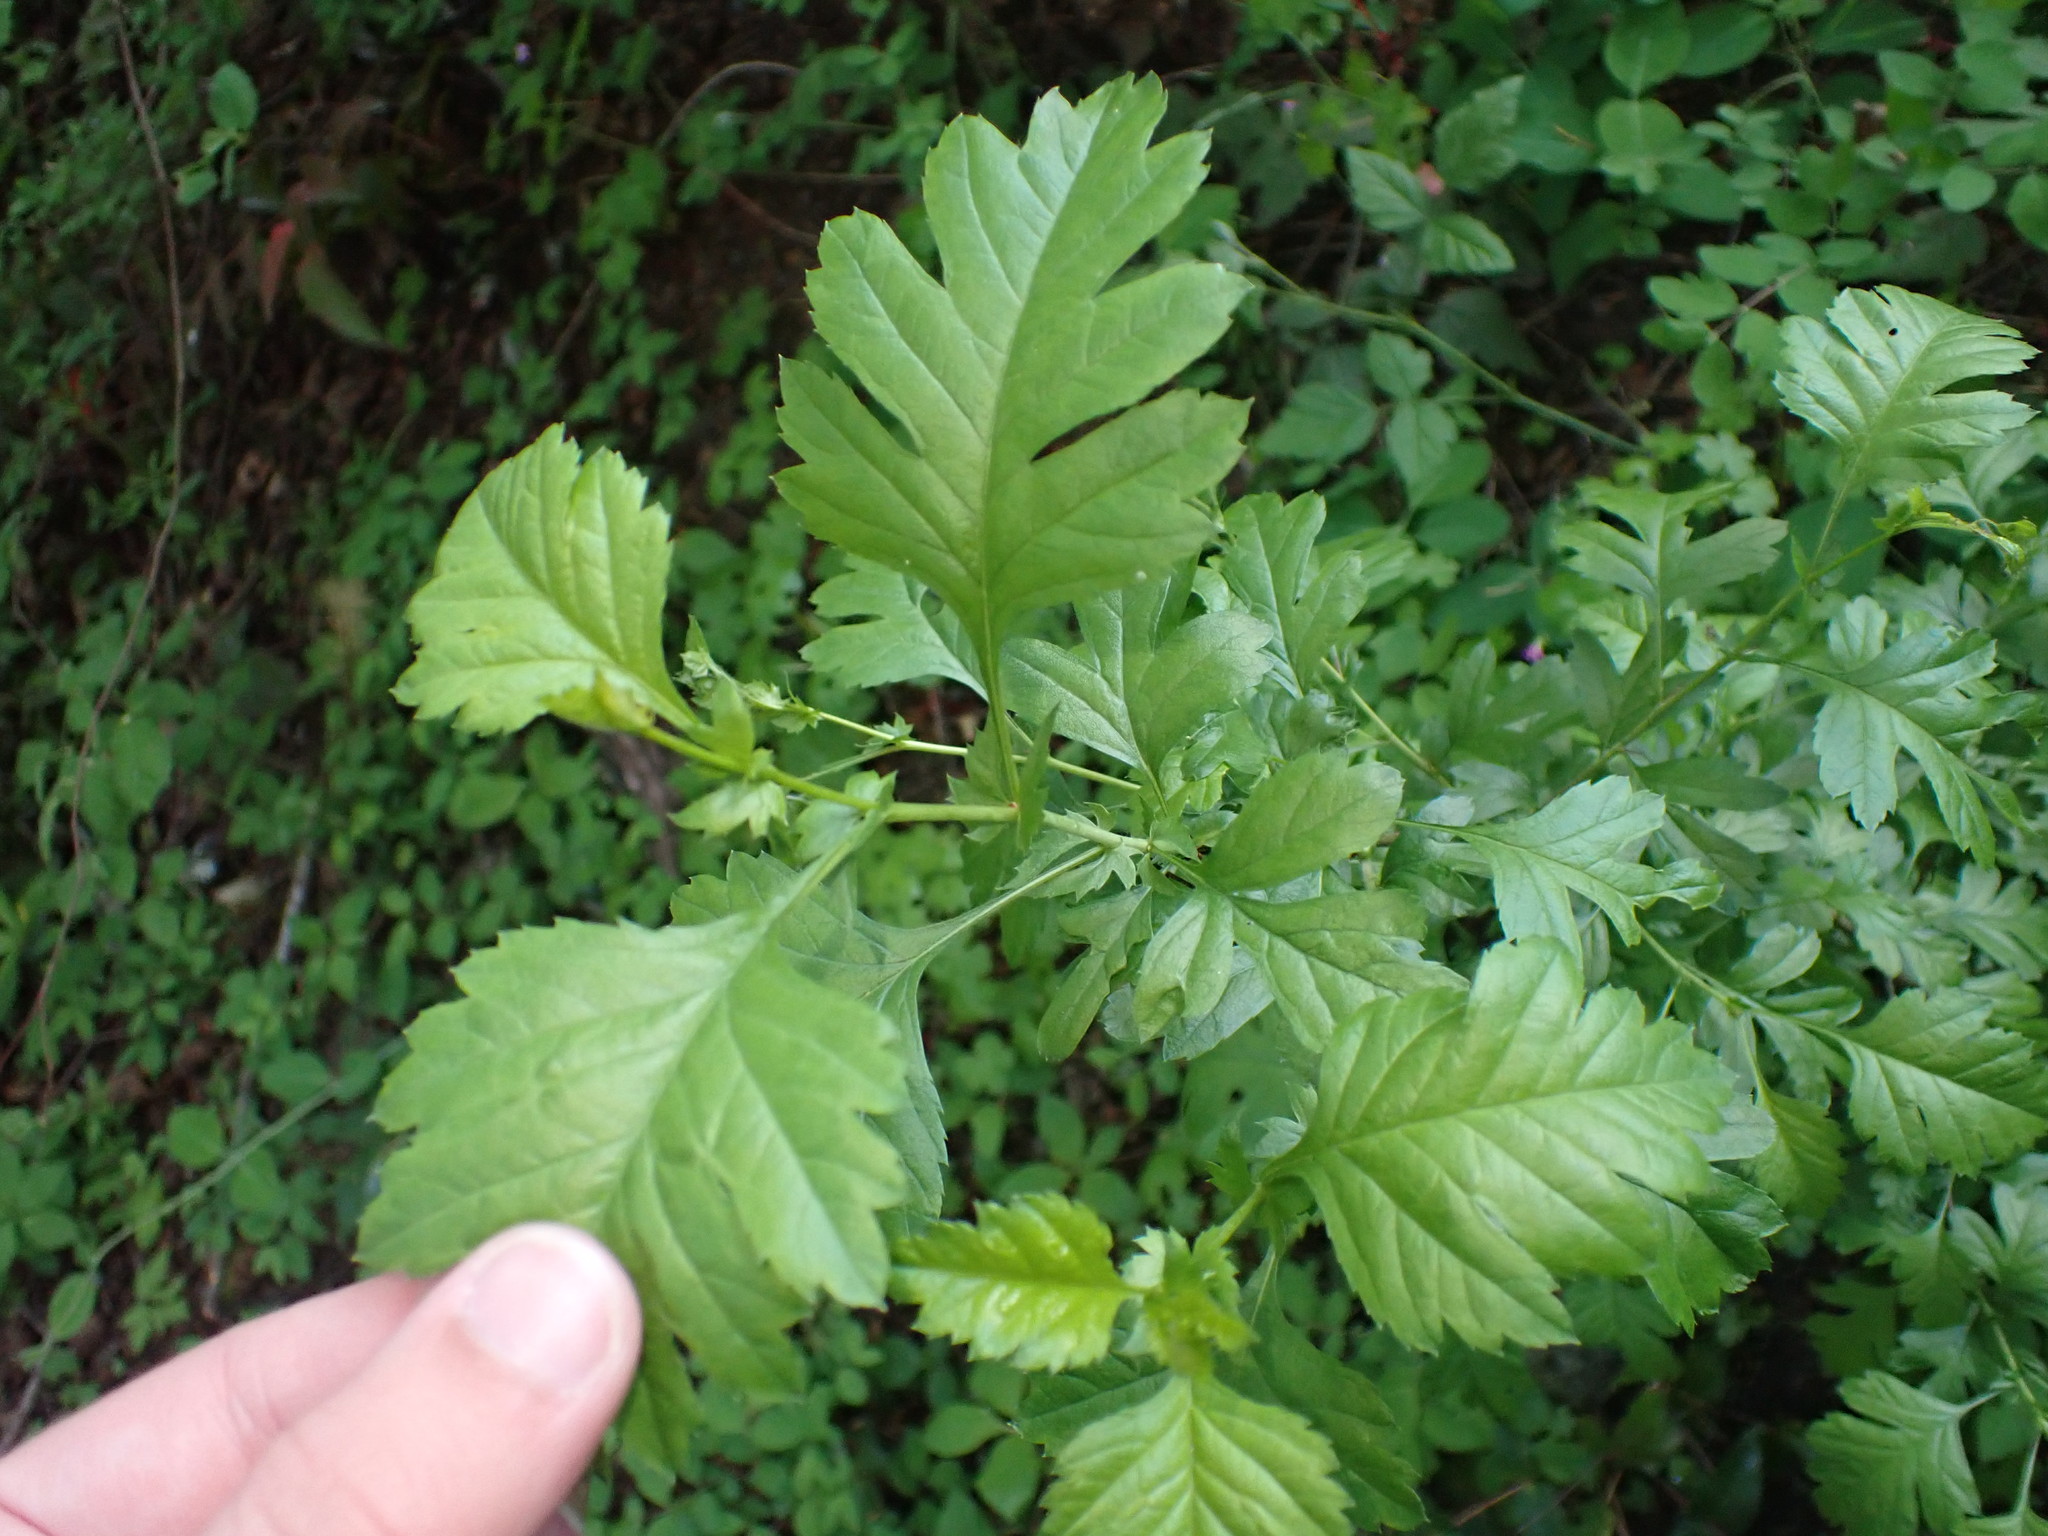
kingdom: Plantae
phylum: Tracheophyta
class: Magnoliopsida
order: Rosales
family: Rosaceae
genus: Crataegus
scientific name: Crataegus monogyna
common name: Hawthorn
